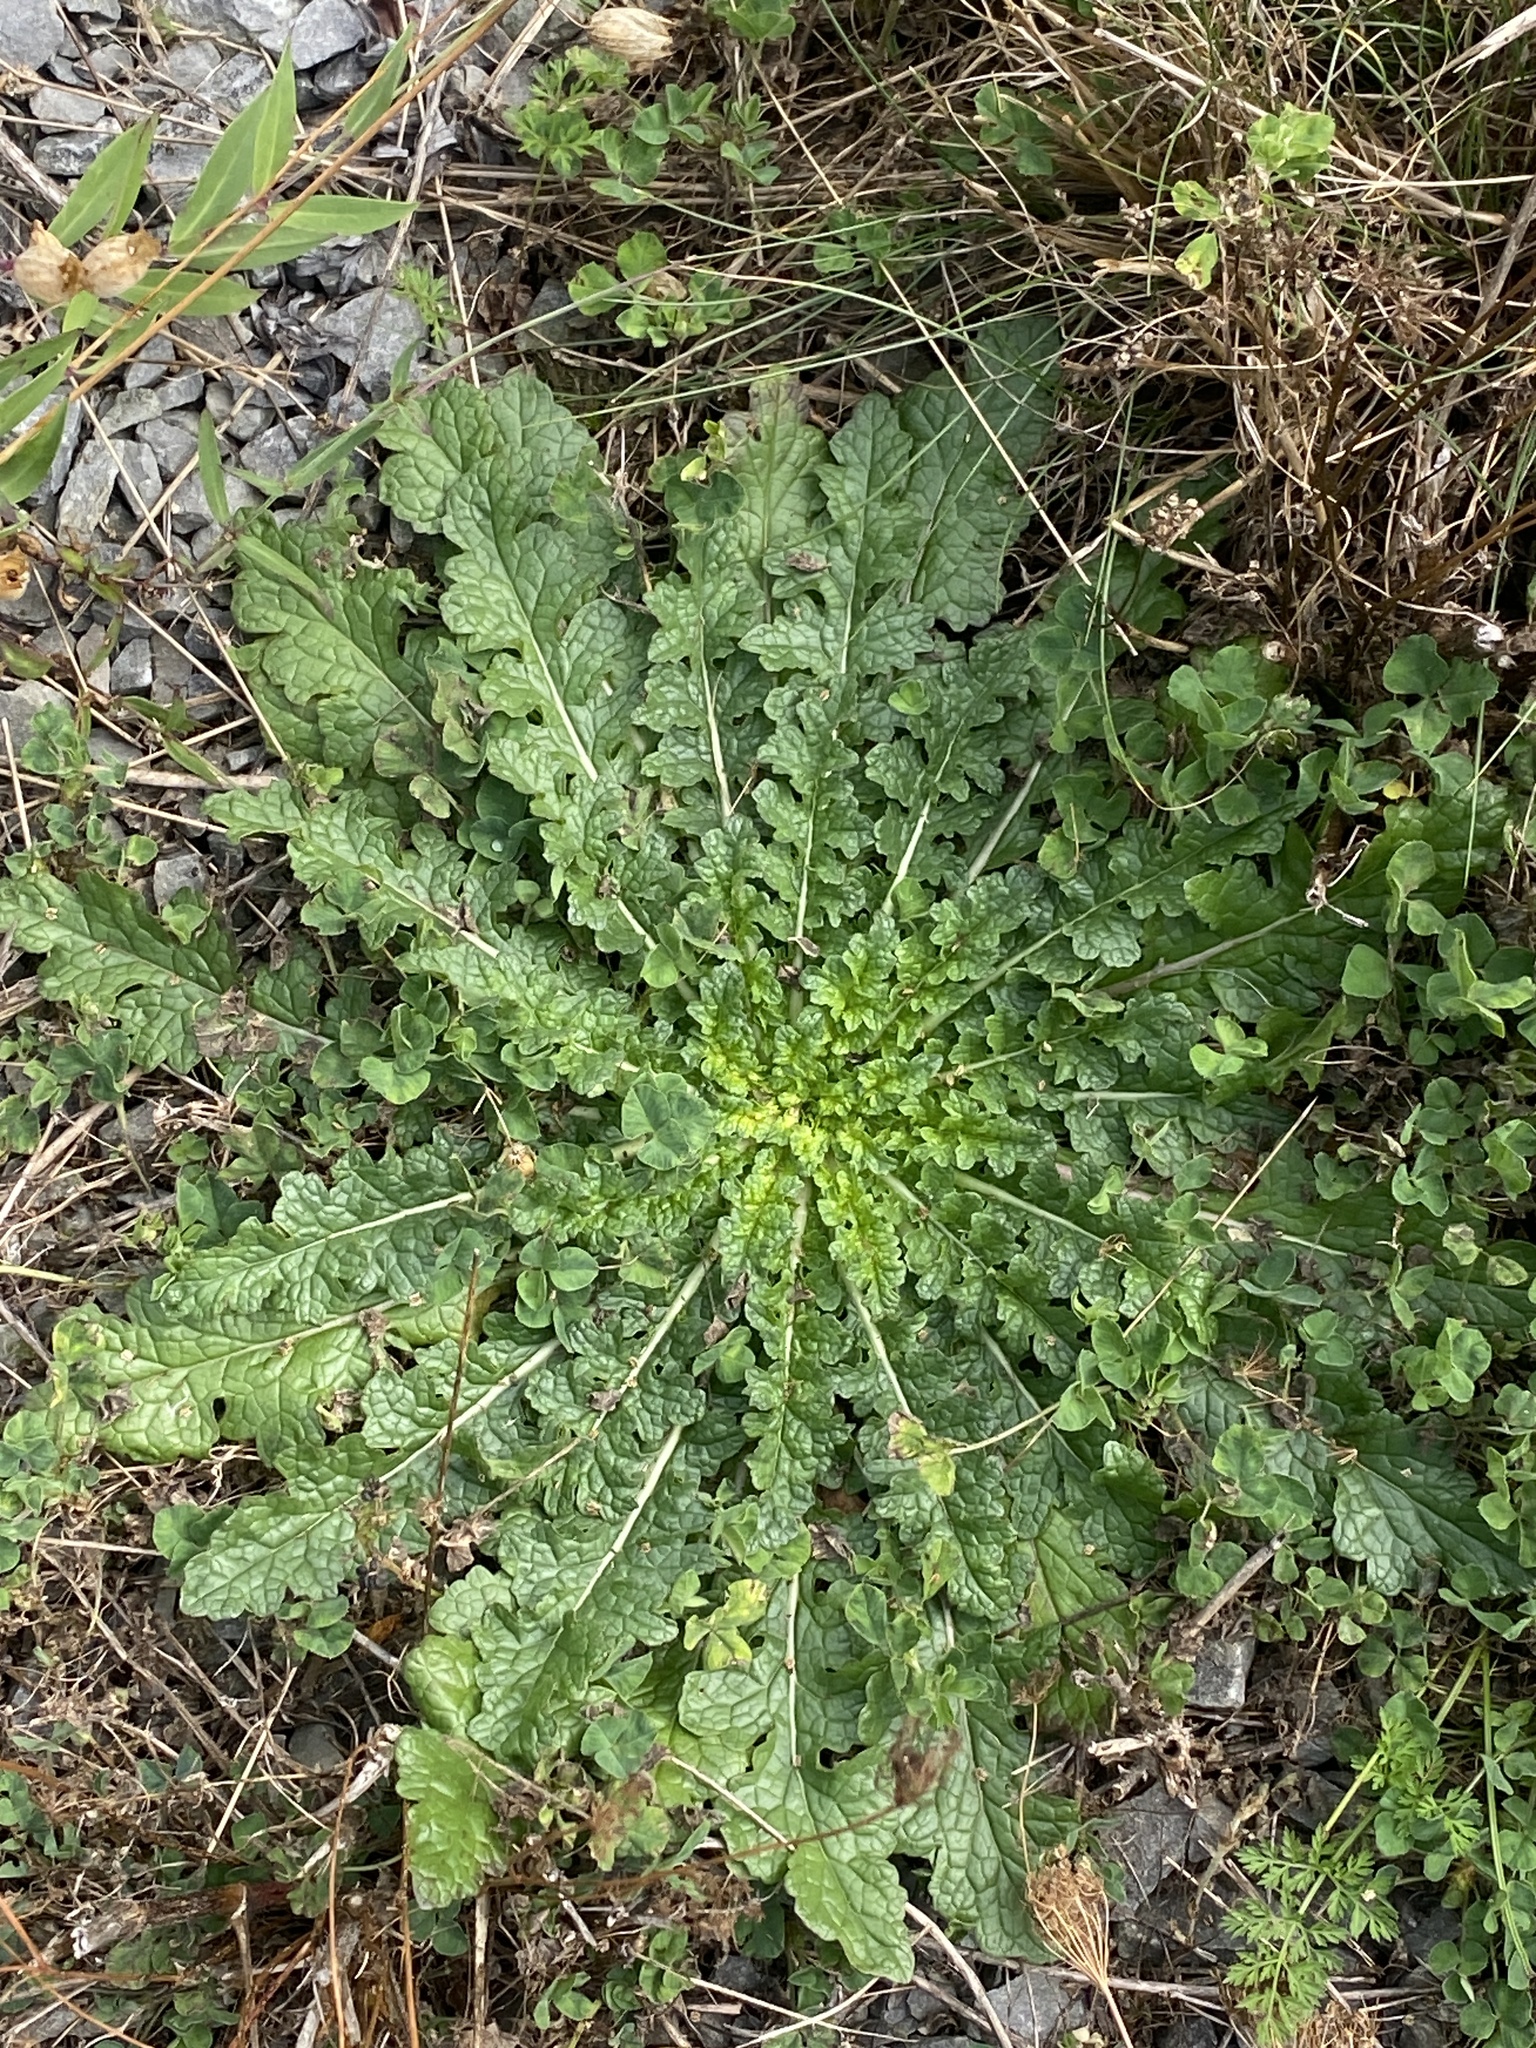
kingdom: Plantae
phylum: Tracheophyta
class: Magnoliopsida
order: Lamiales
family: Scrophulariaceae
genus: Verbascum
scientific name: Verbascum blattaria
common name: Moth mullein
